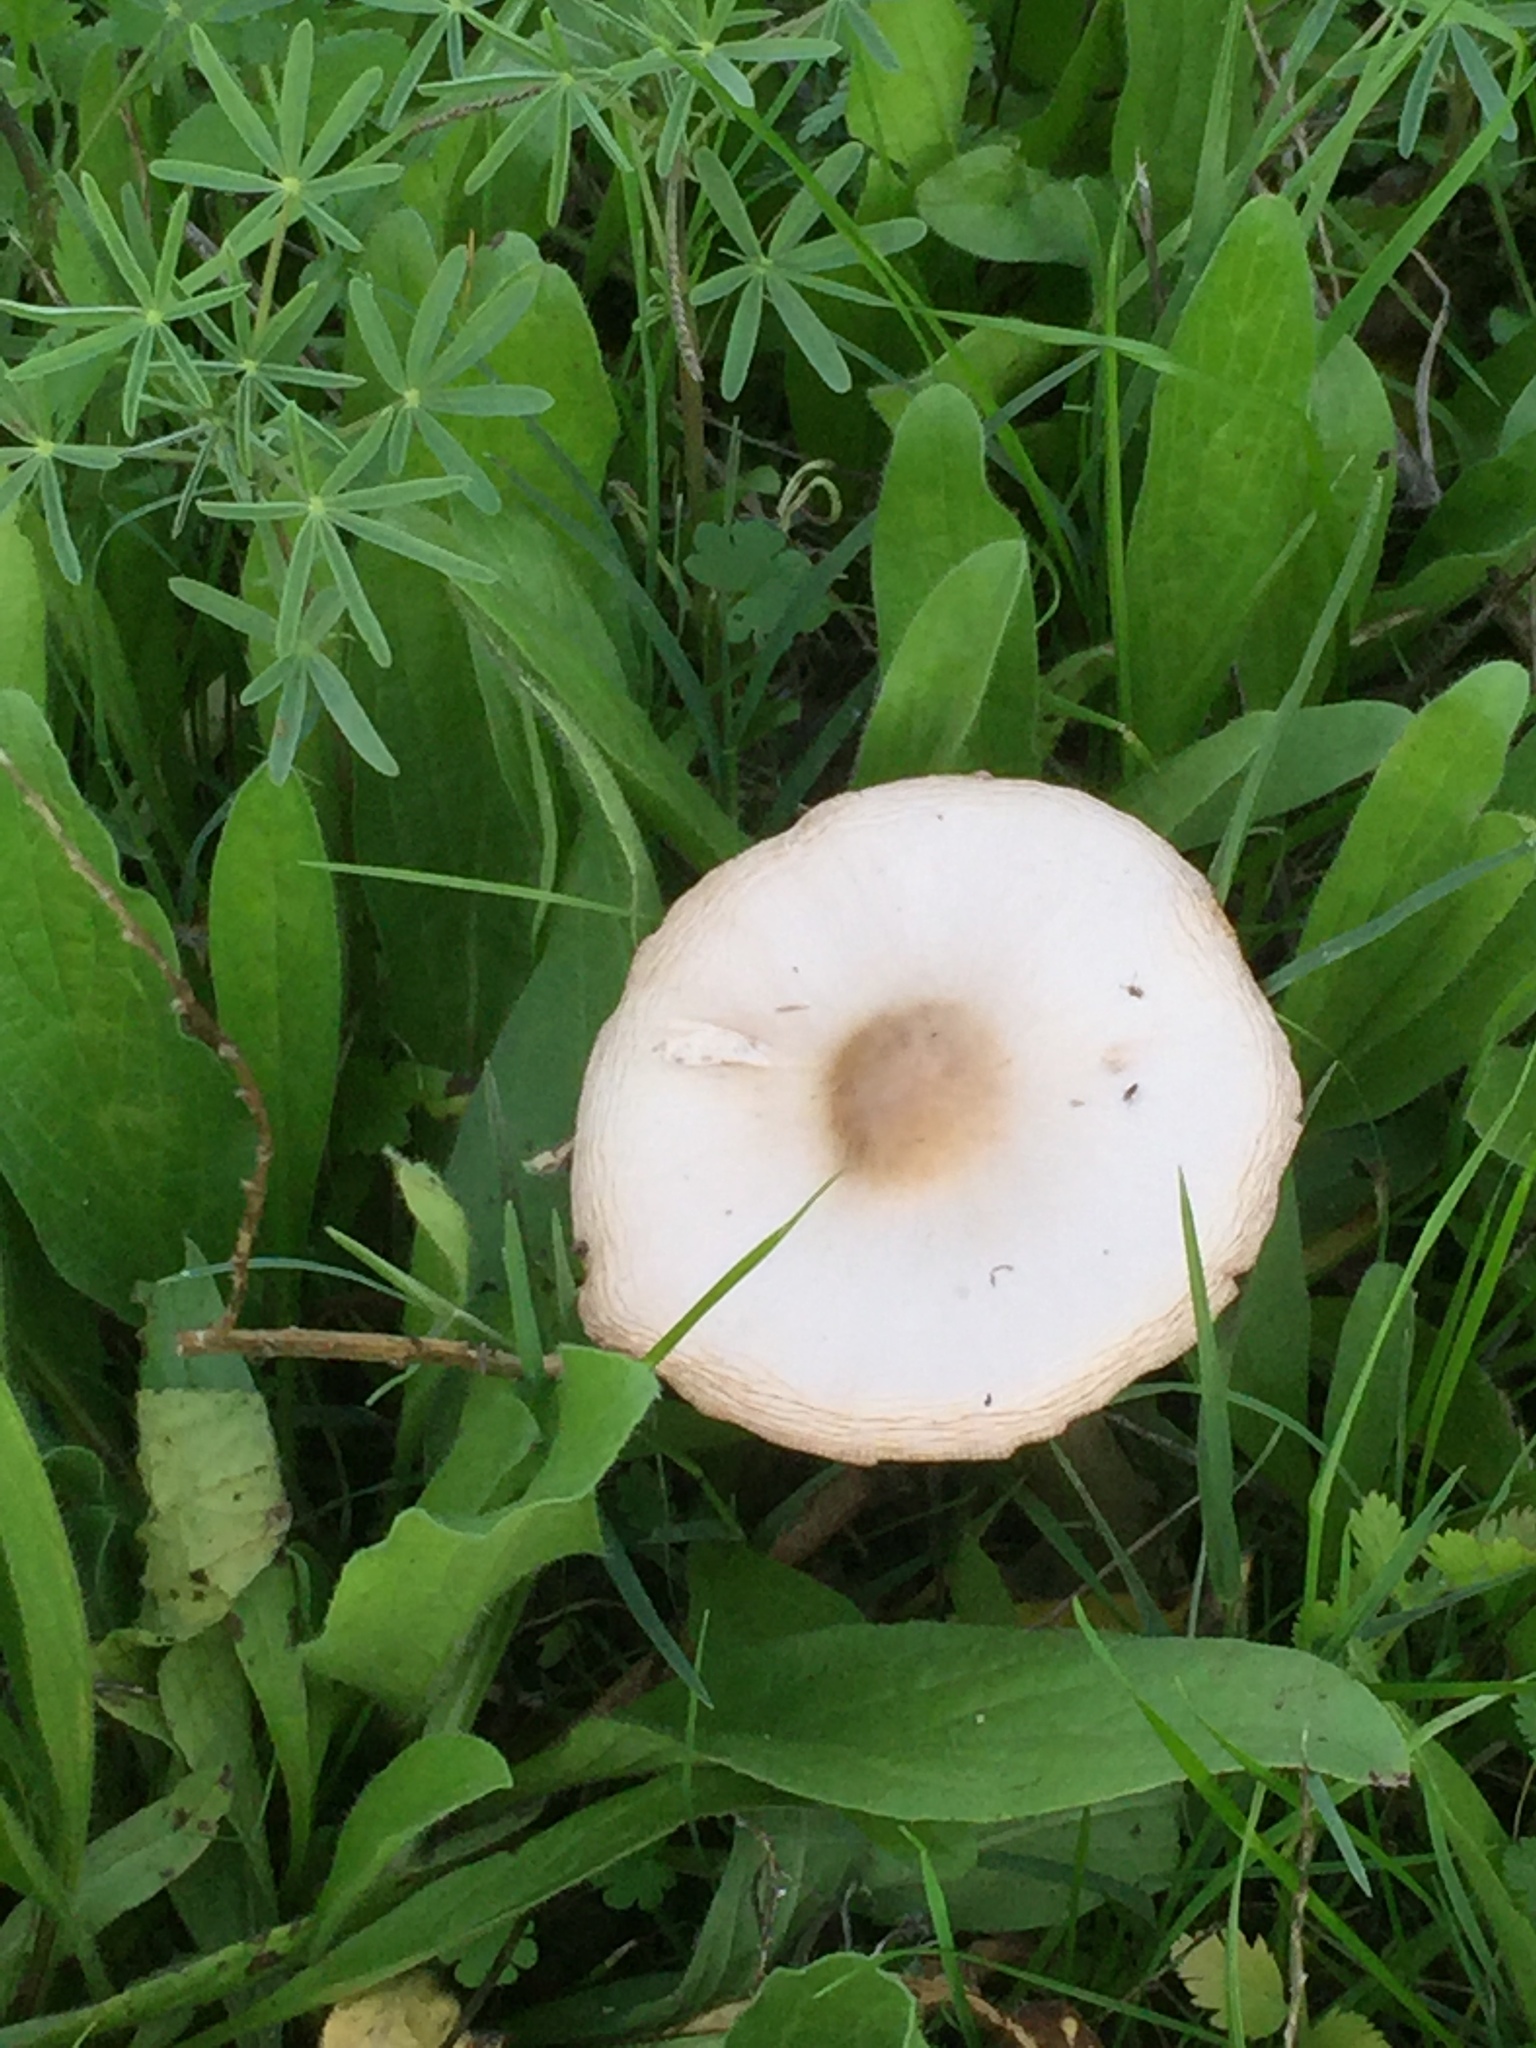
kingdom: Fungi
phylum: Basidiomycota
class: Agaricomycetes
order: Agaricales
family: Marasmiaceae
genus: Marasmius
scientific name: Marasmius oreades
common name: Fairy ring champignon
